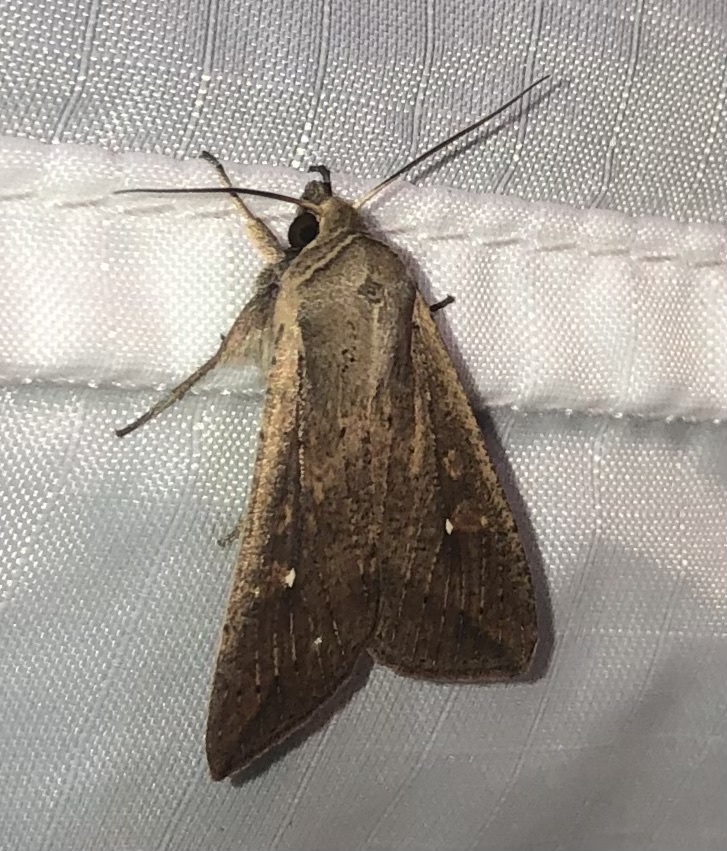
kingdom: Animalia
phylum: Arthropoda
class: Insecta
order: Lepidoptera
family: Noctuidae
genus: Mythimna
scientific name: Mythimna unipuncta
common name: White-speck
